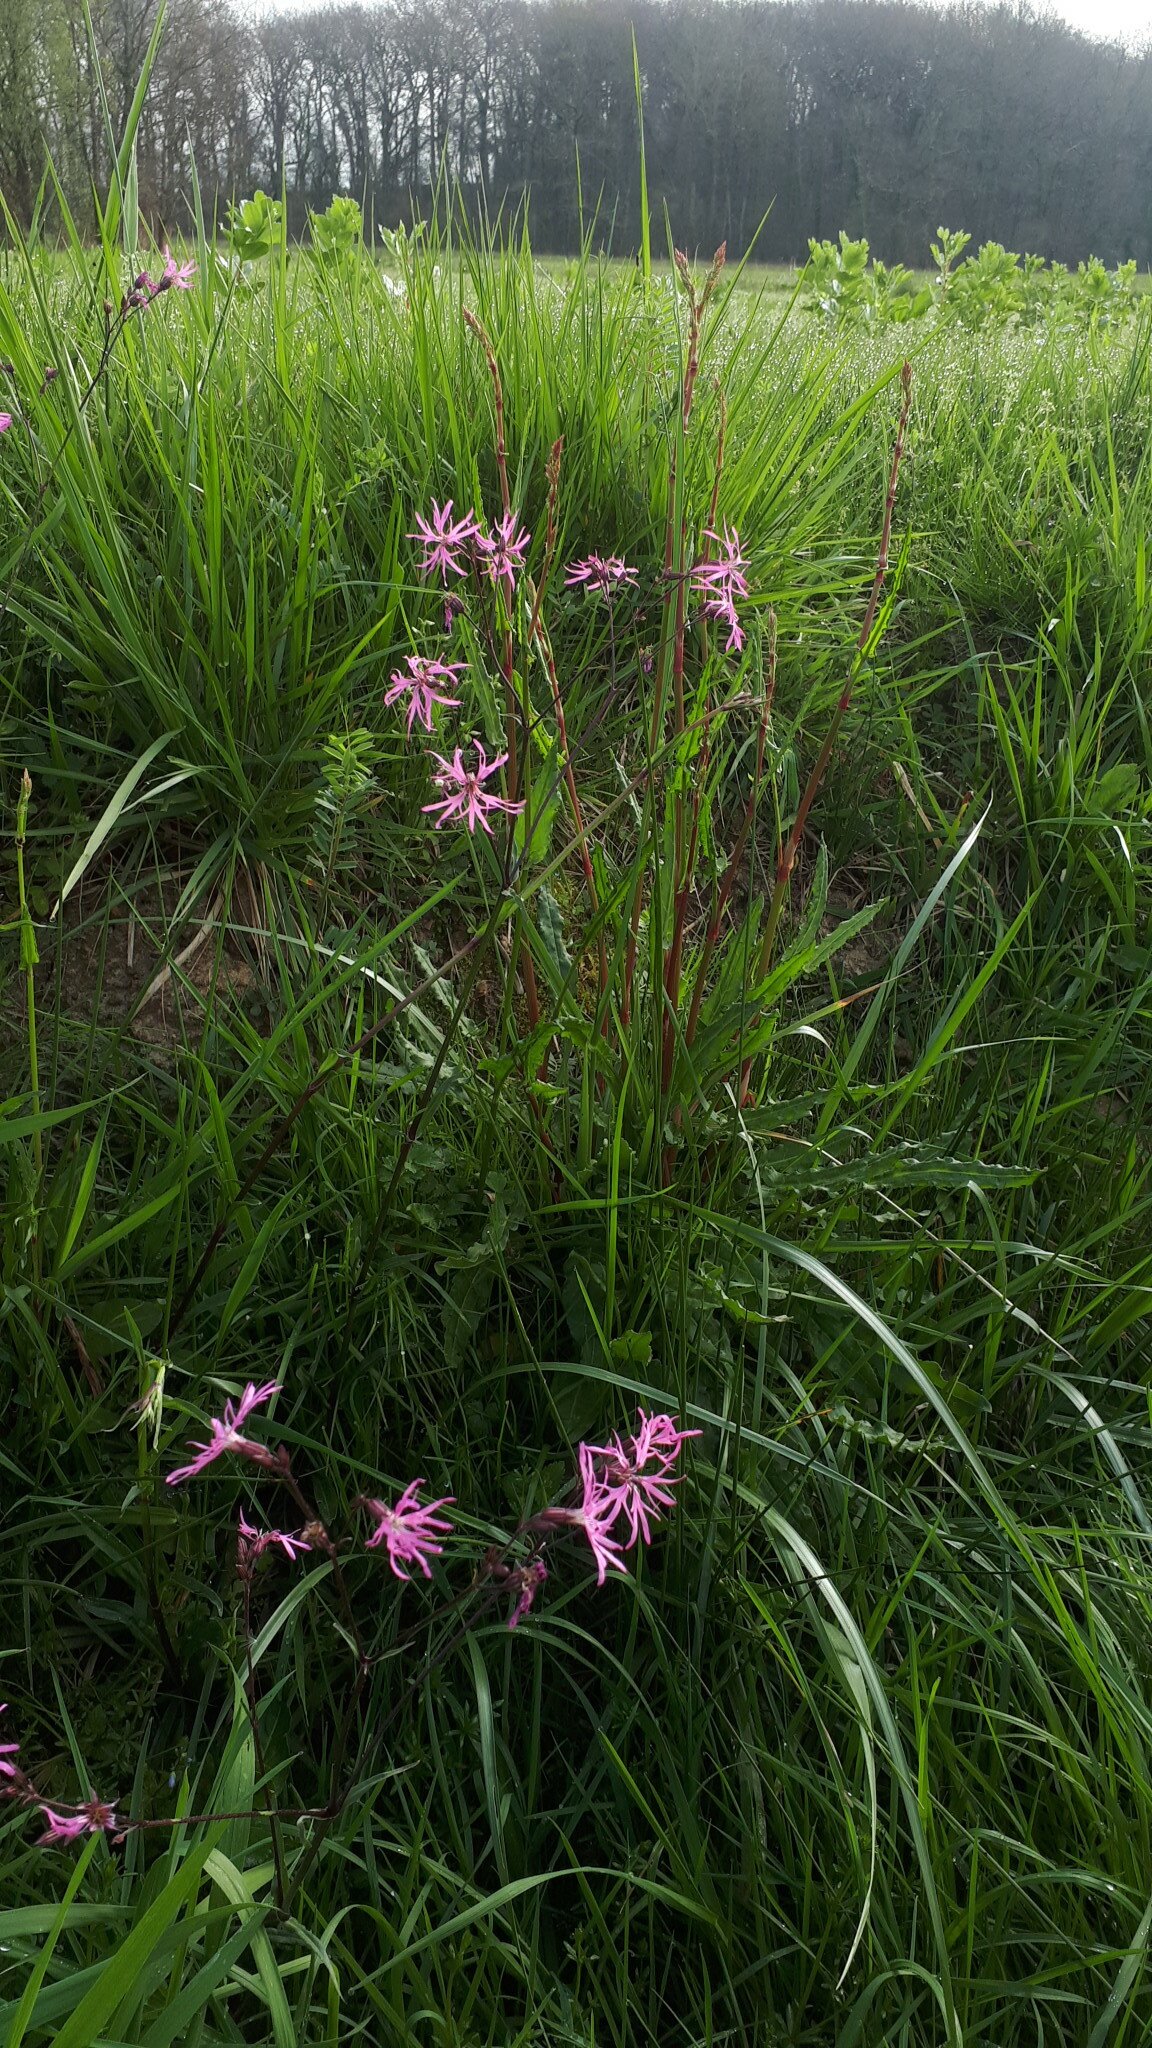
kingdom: Plantae
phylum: Tracheophyta
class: Magnoliopsida
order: Caryophyllales
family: Caryophyllaceae
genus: Silene
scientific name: Silene flos-cuculi
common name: Ragged-robin
